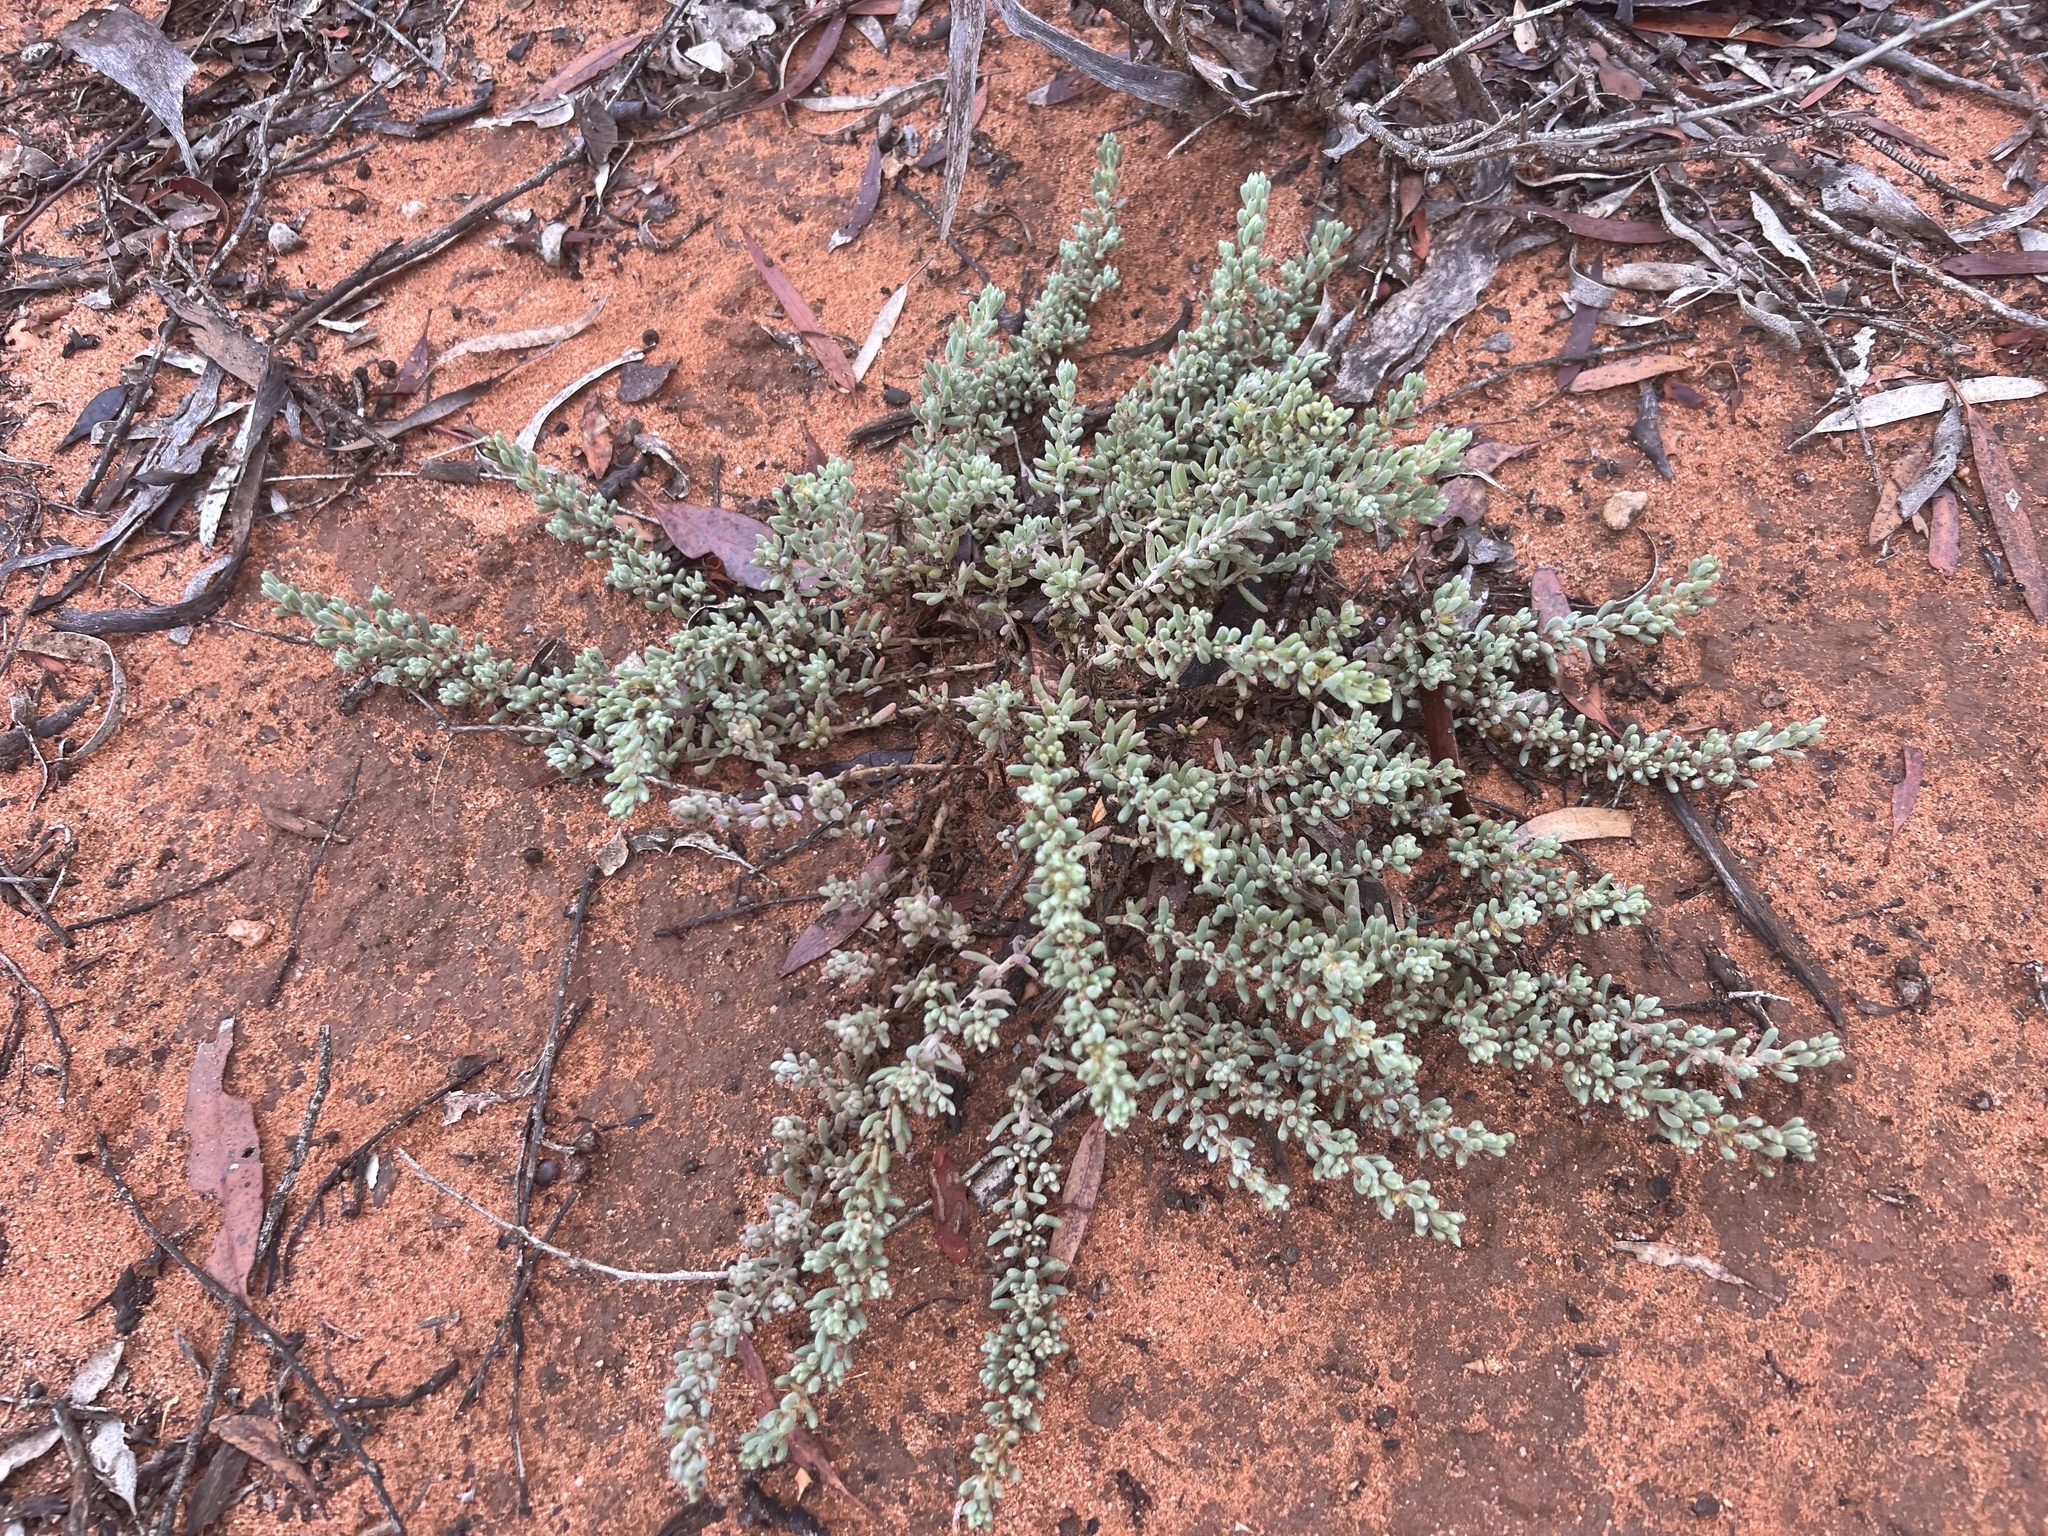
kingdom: Plantae
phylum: Tracheophyta
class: Magnoliopsida
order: Caryophyllales
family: Amaranthaceae
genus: Sclerolaena
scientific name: Sclerolaena diacantha
